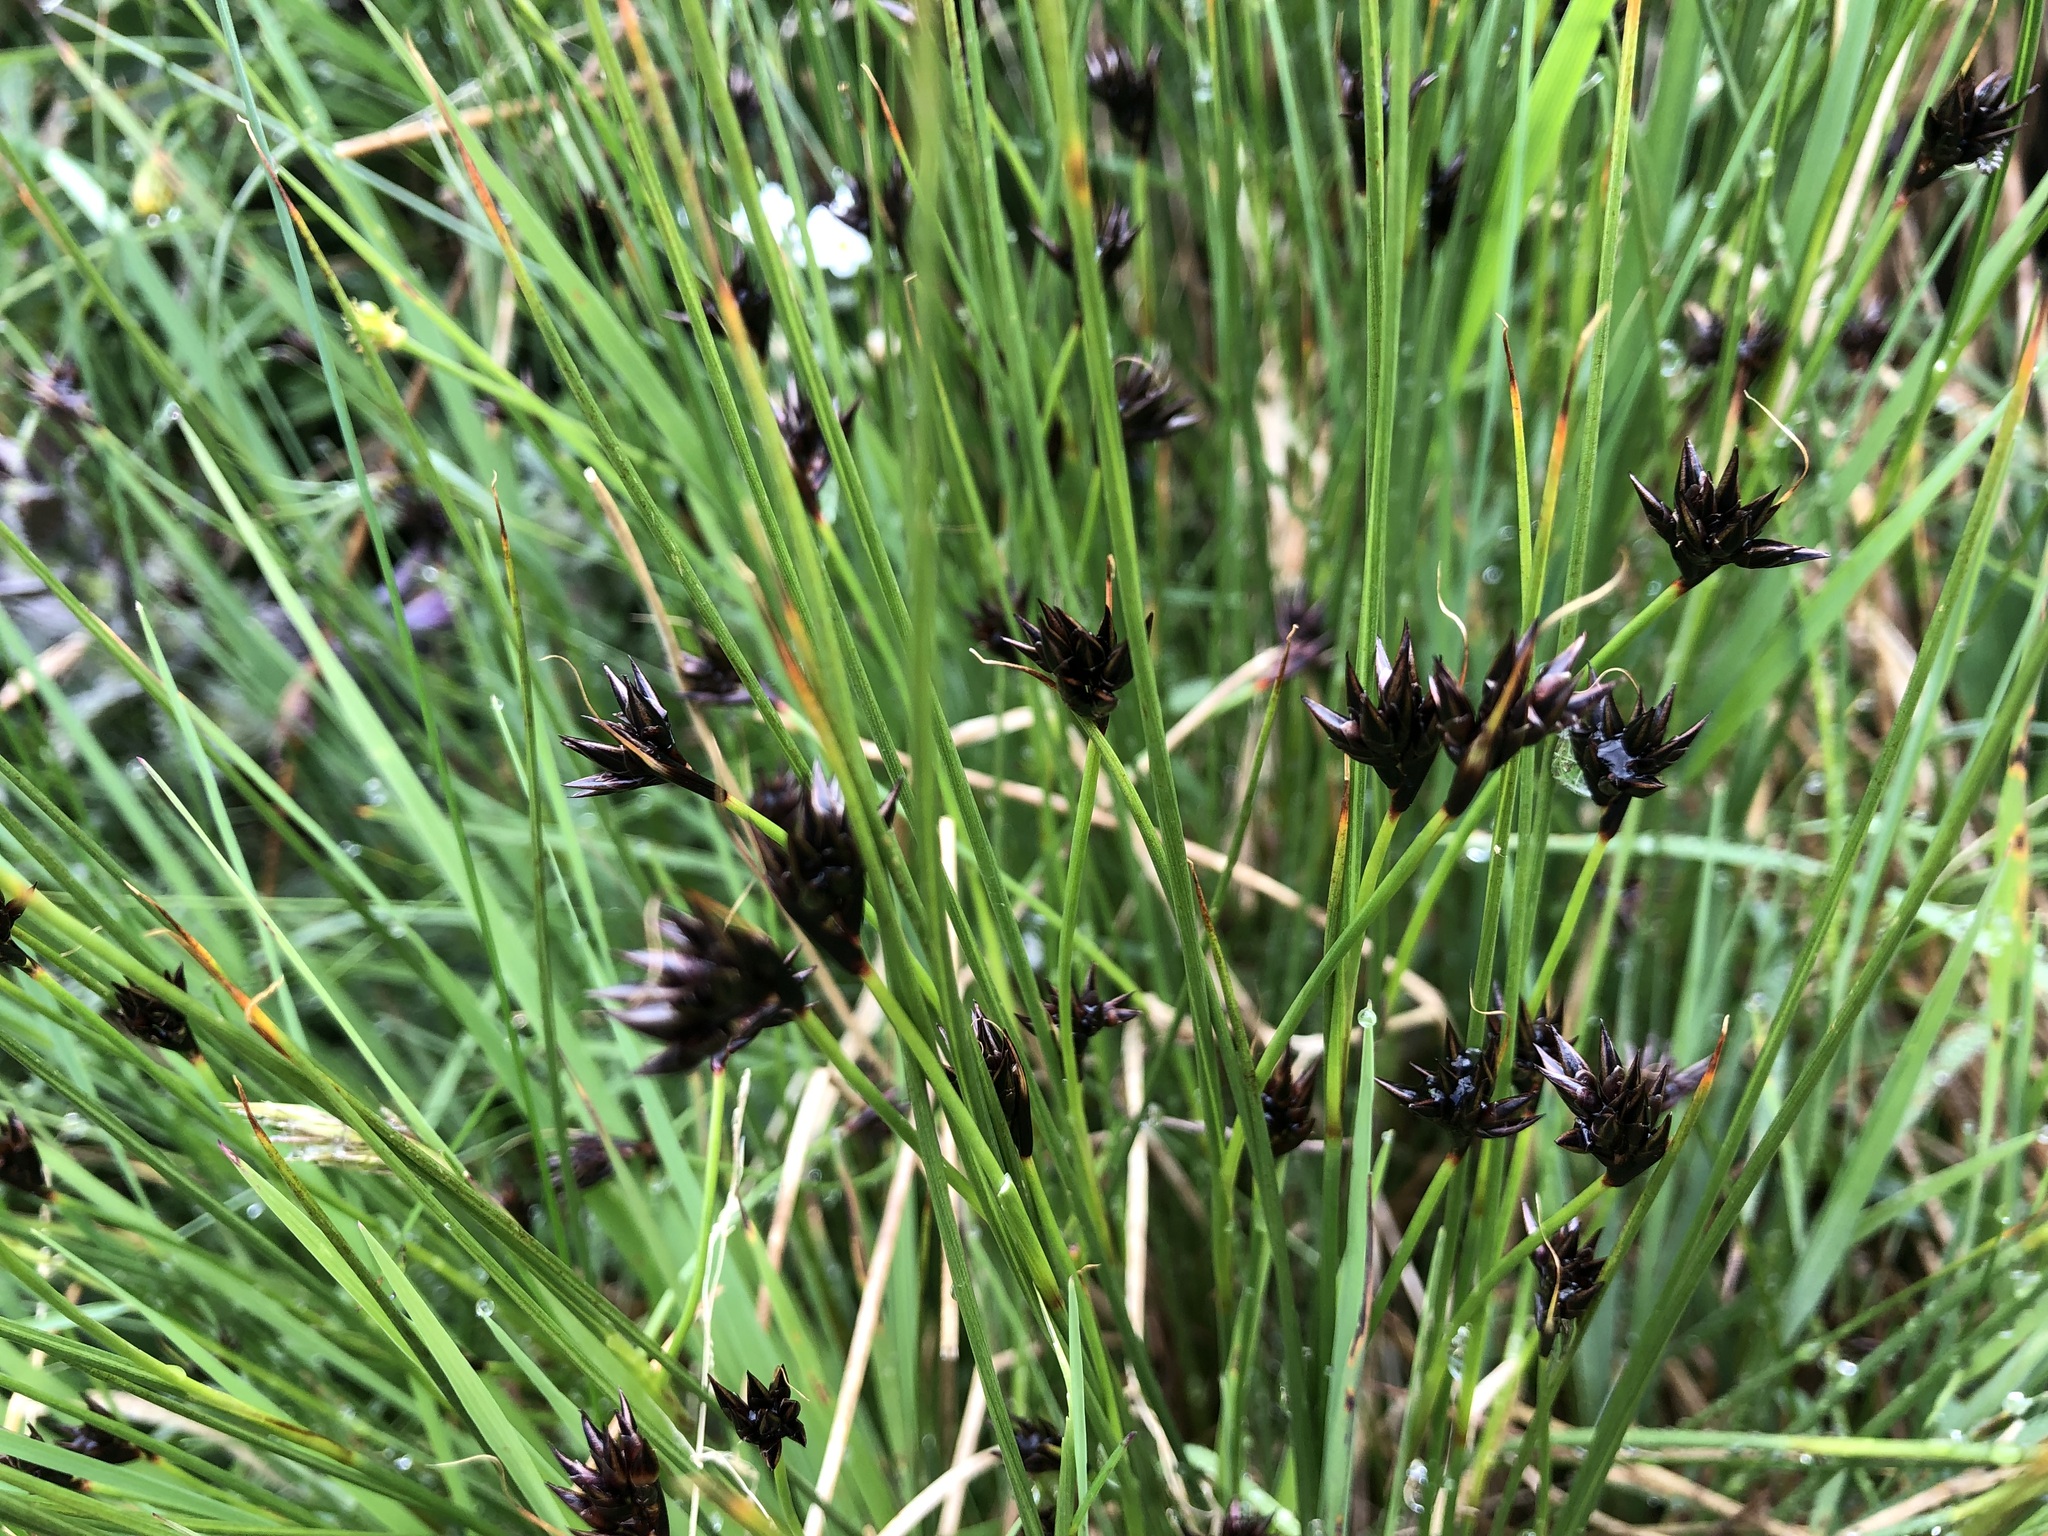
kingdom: Plantae
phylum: Tracheophyta
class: Liliopsida
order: Poales
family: Juncaceae
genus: Juncus
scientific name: Juncus jacquinii
